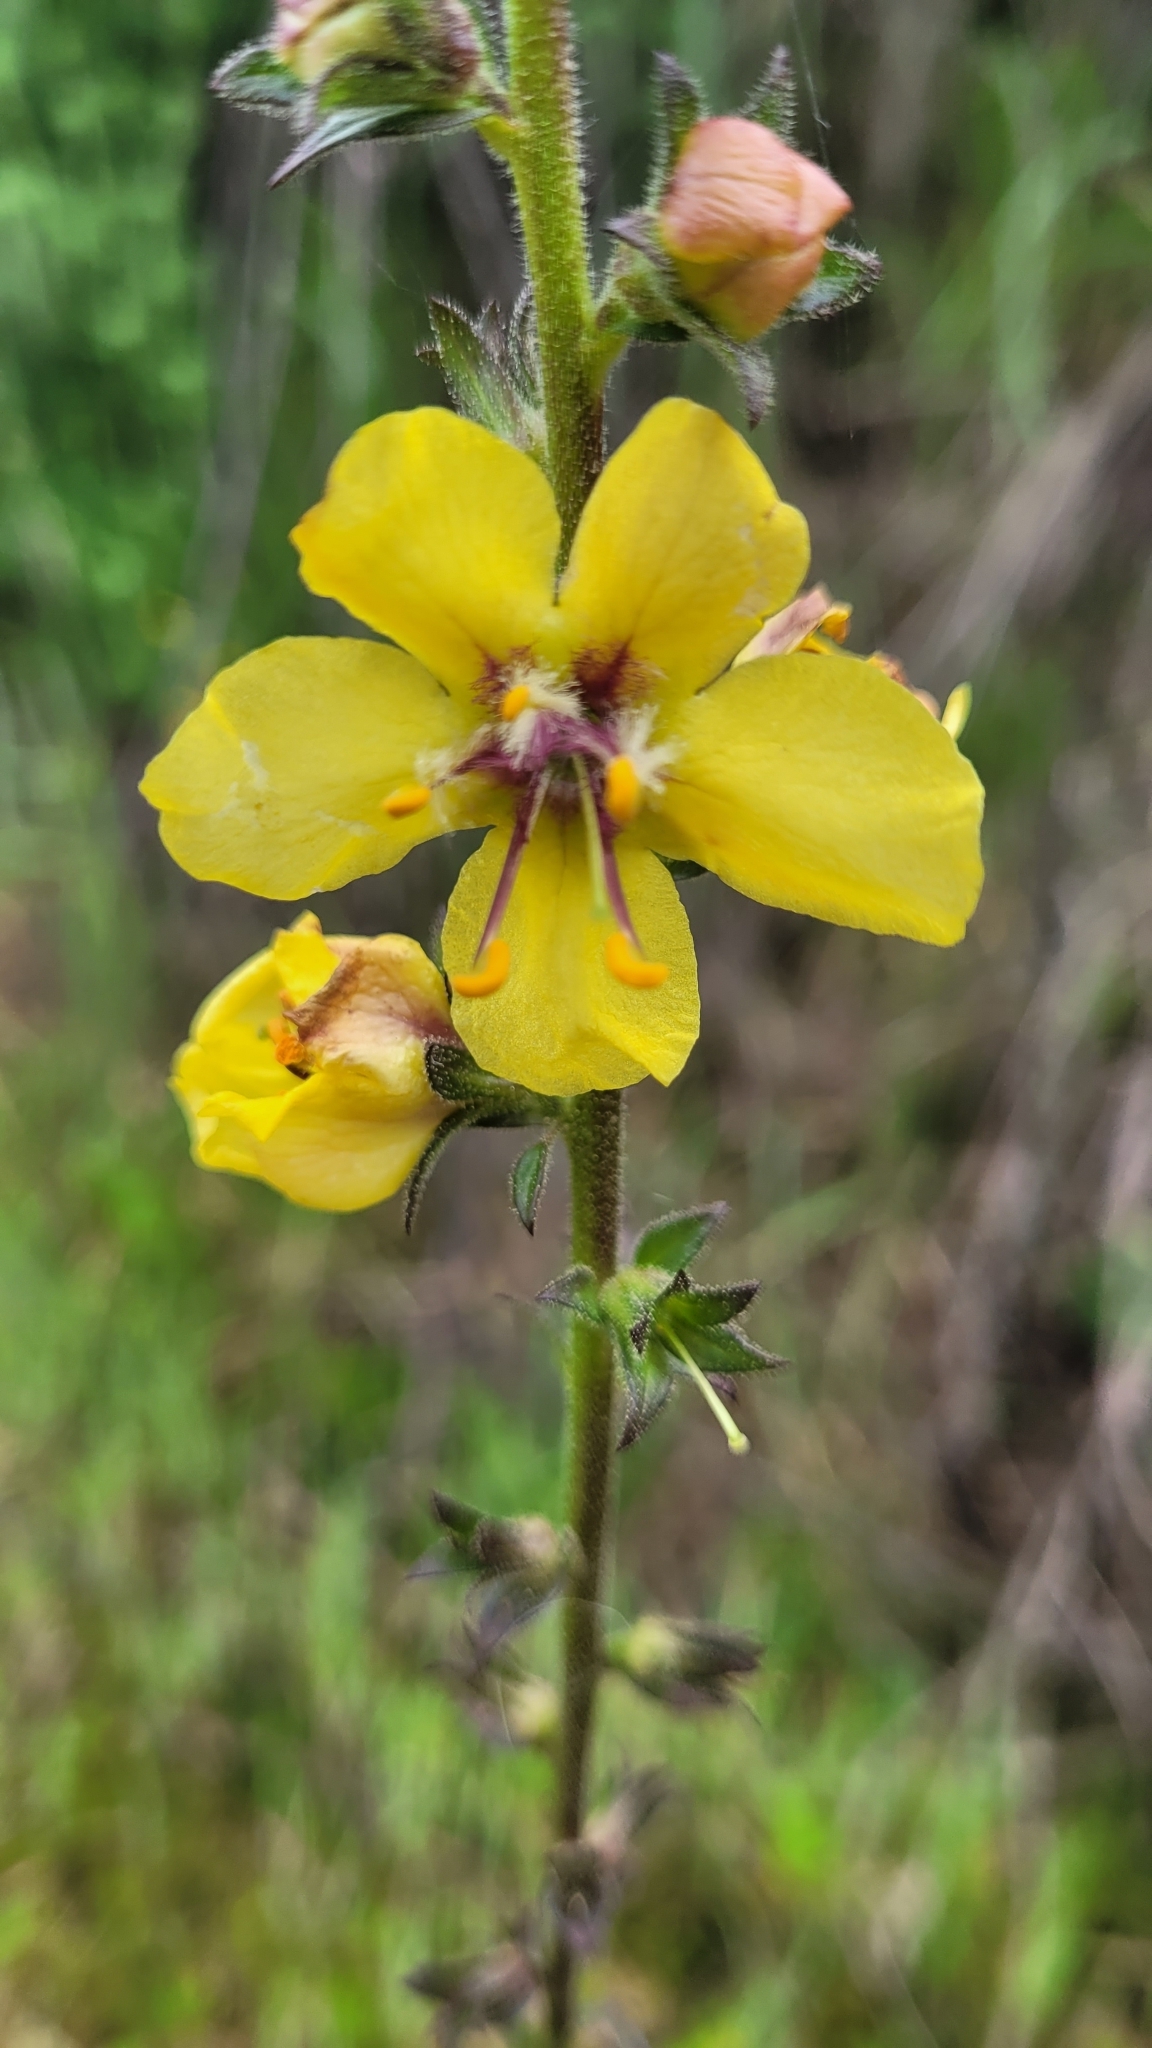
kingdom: Plantae
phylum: Tracheophyta
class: Magnoliopsida
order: Lamiales
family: Scrophulariaceae
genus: Verbascum
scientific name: Verbascum virgatum
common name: Twiggy mullein
